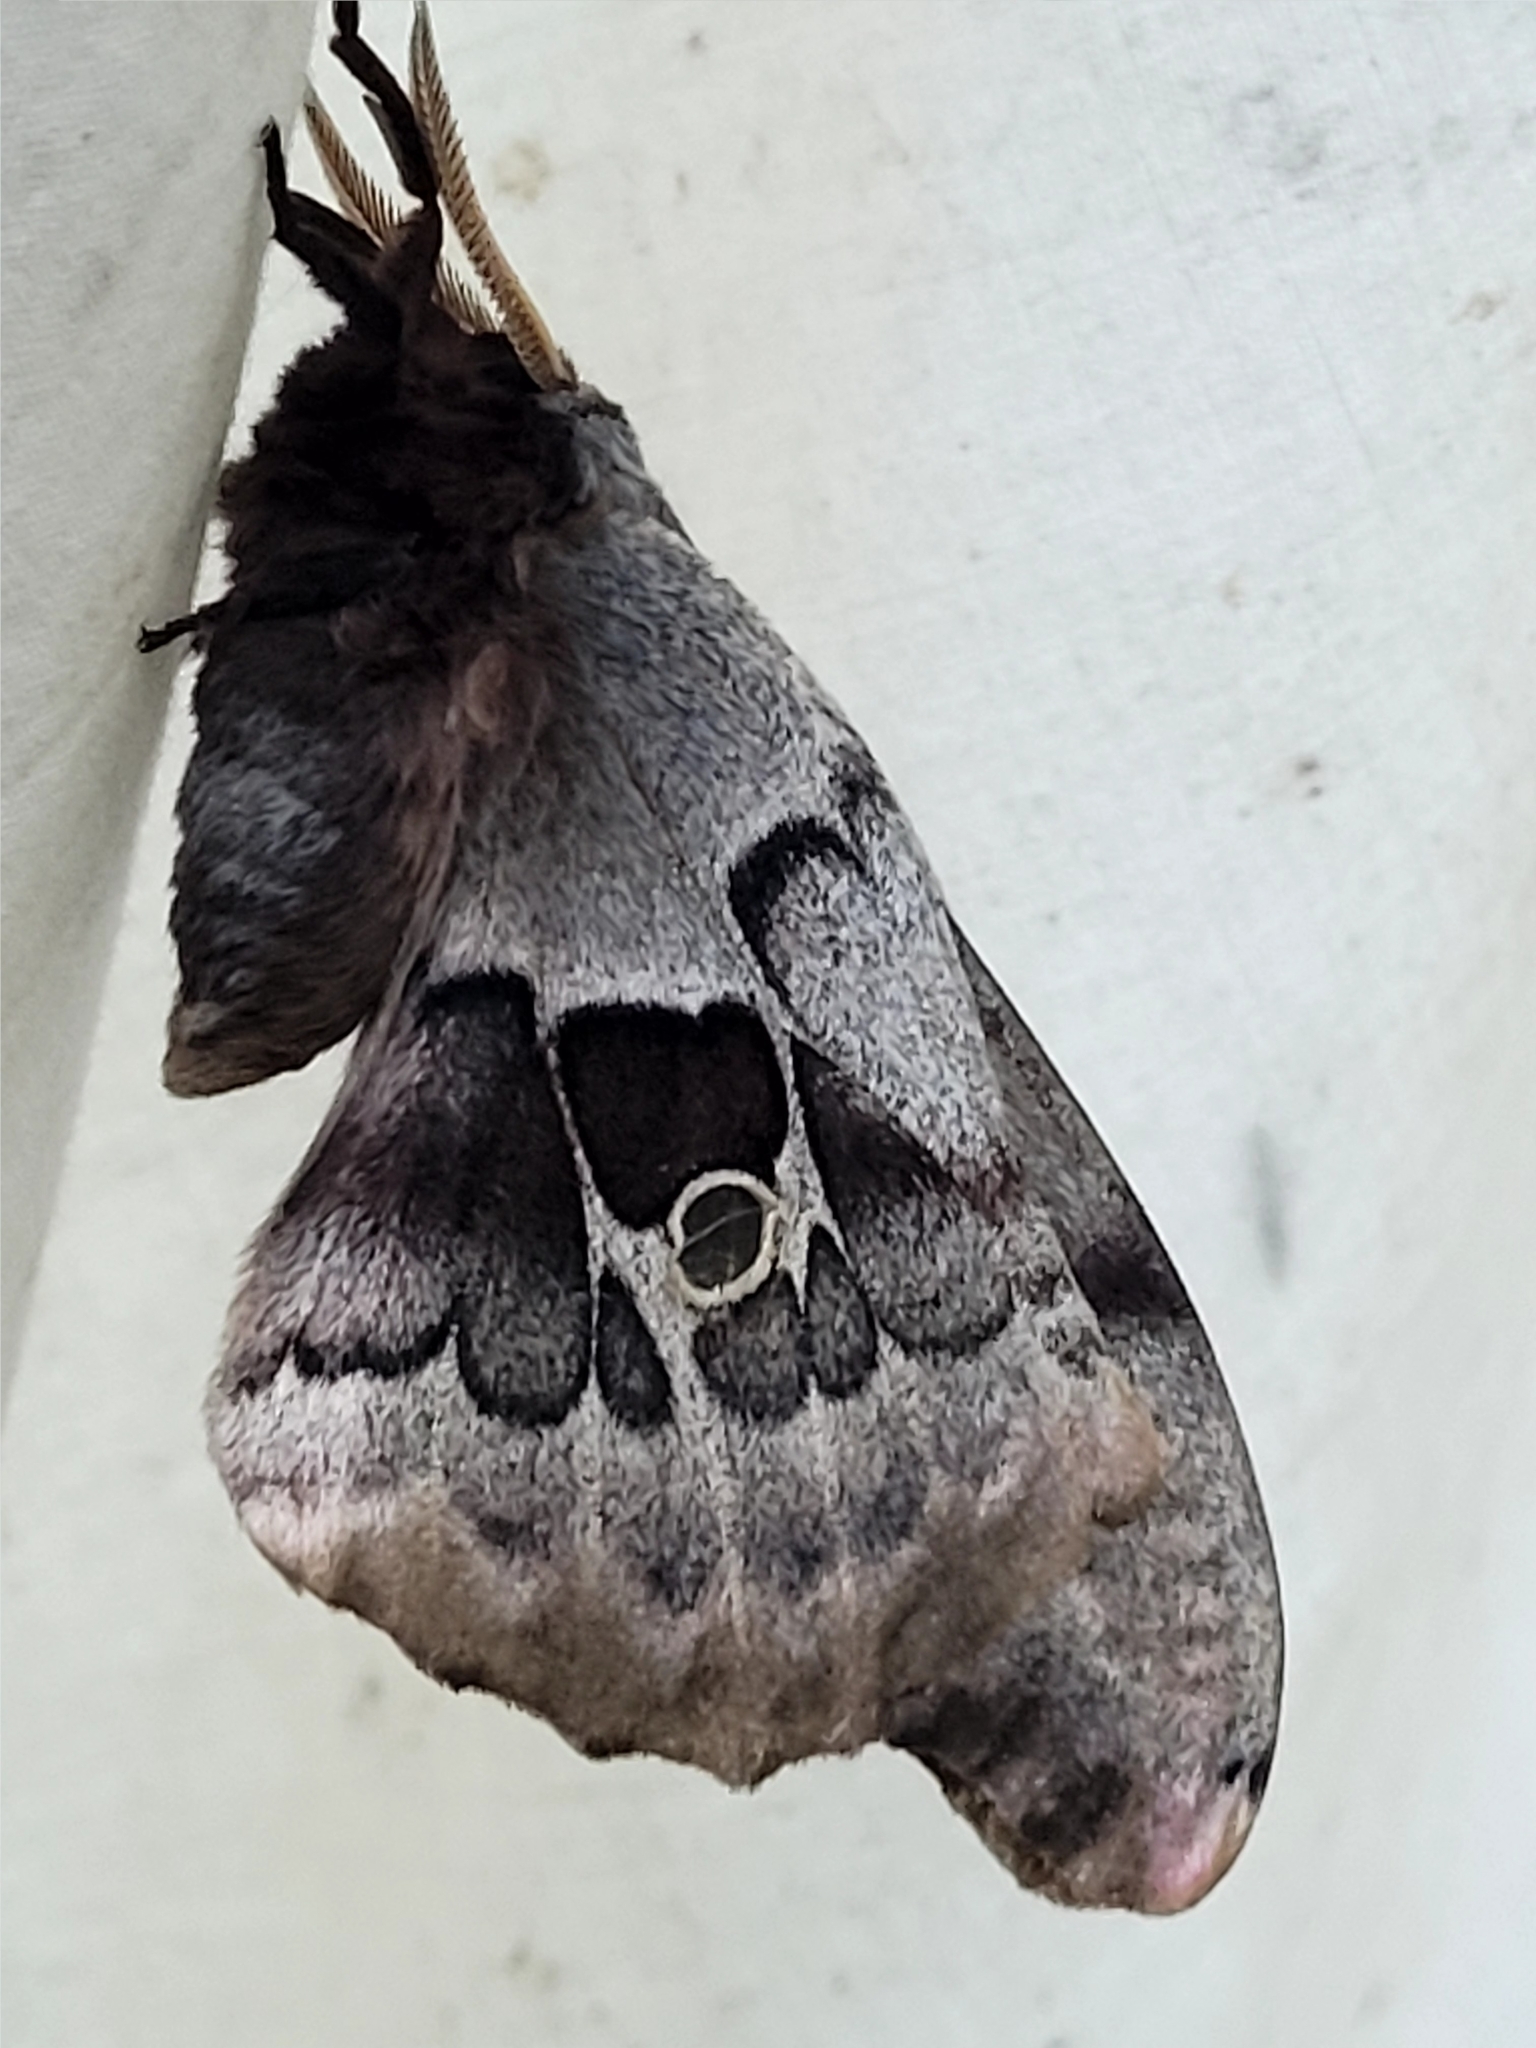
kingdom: Animalia
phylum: Arthropoda
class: Insecta
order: Lepidoptera
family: Saturniidae
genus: Antheraea
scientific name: Antheraea polyphemus
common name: Polyphemus moth
